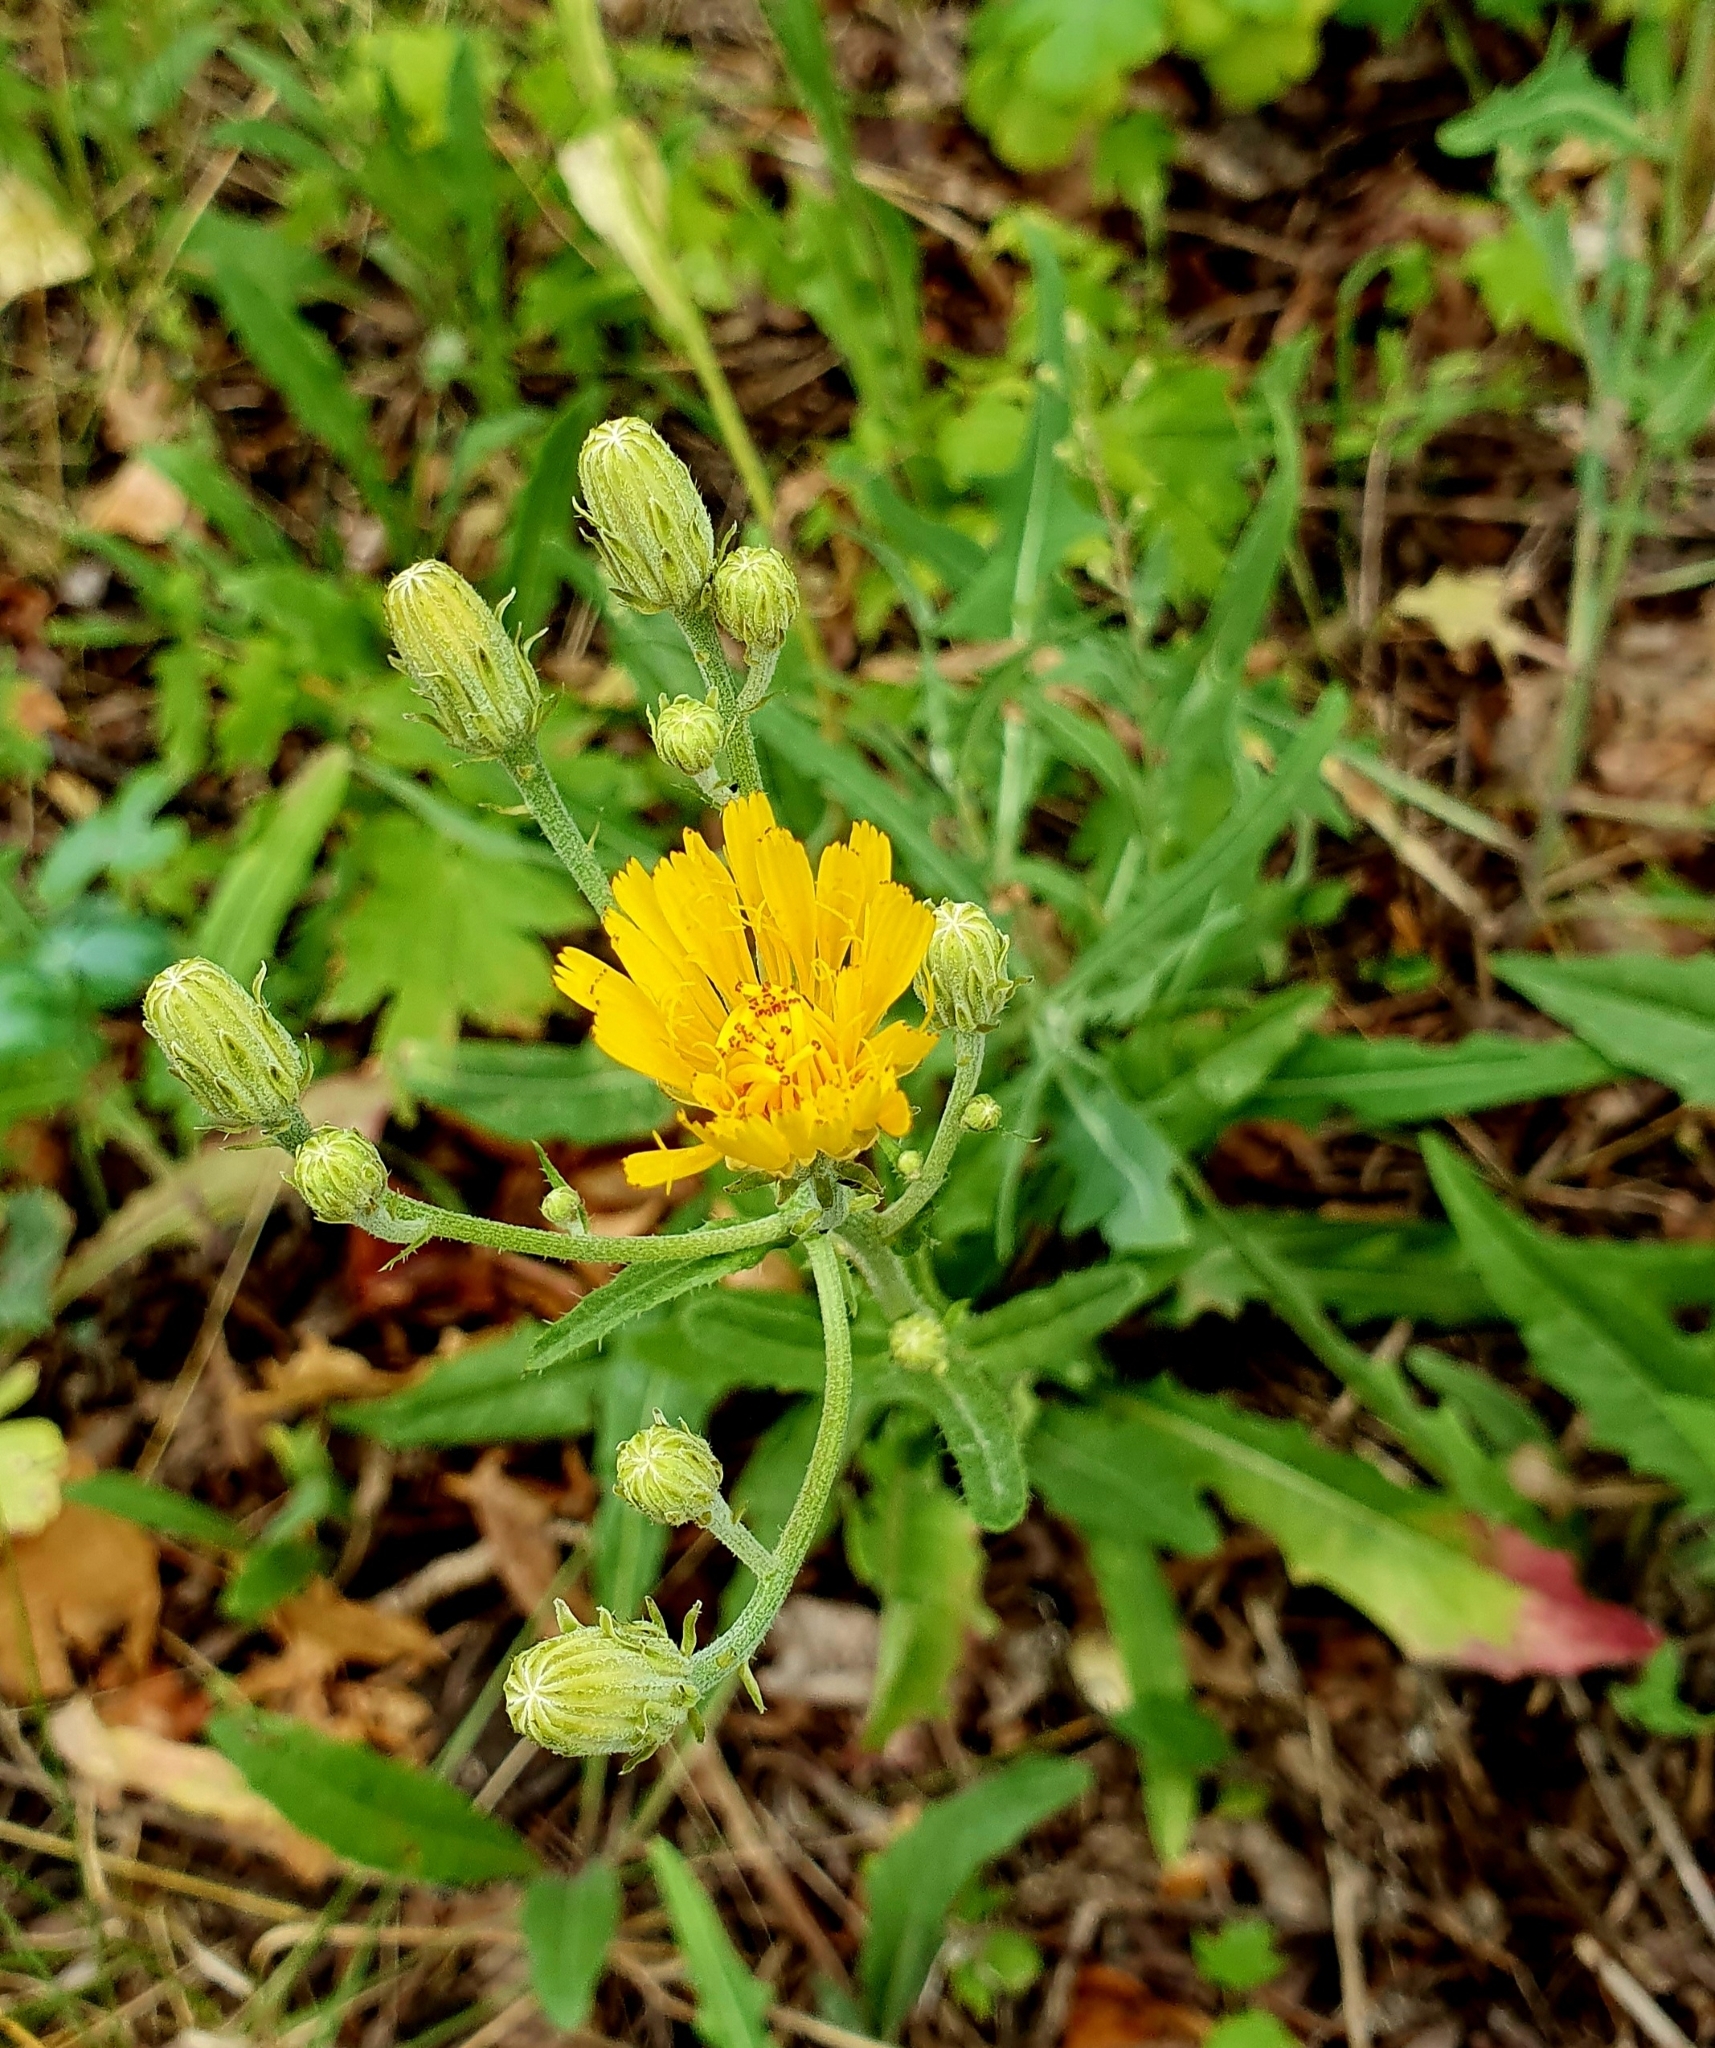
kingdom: Plantae
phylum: Tracheophyta
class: Magnoliopsida
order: Asterales
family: Asteraceae
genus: Picris
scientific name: Picris hieracioides
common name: Hawkweed oxtongue
